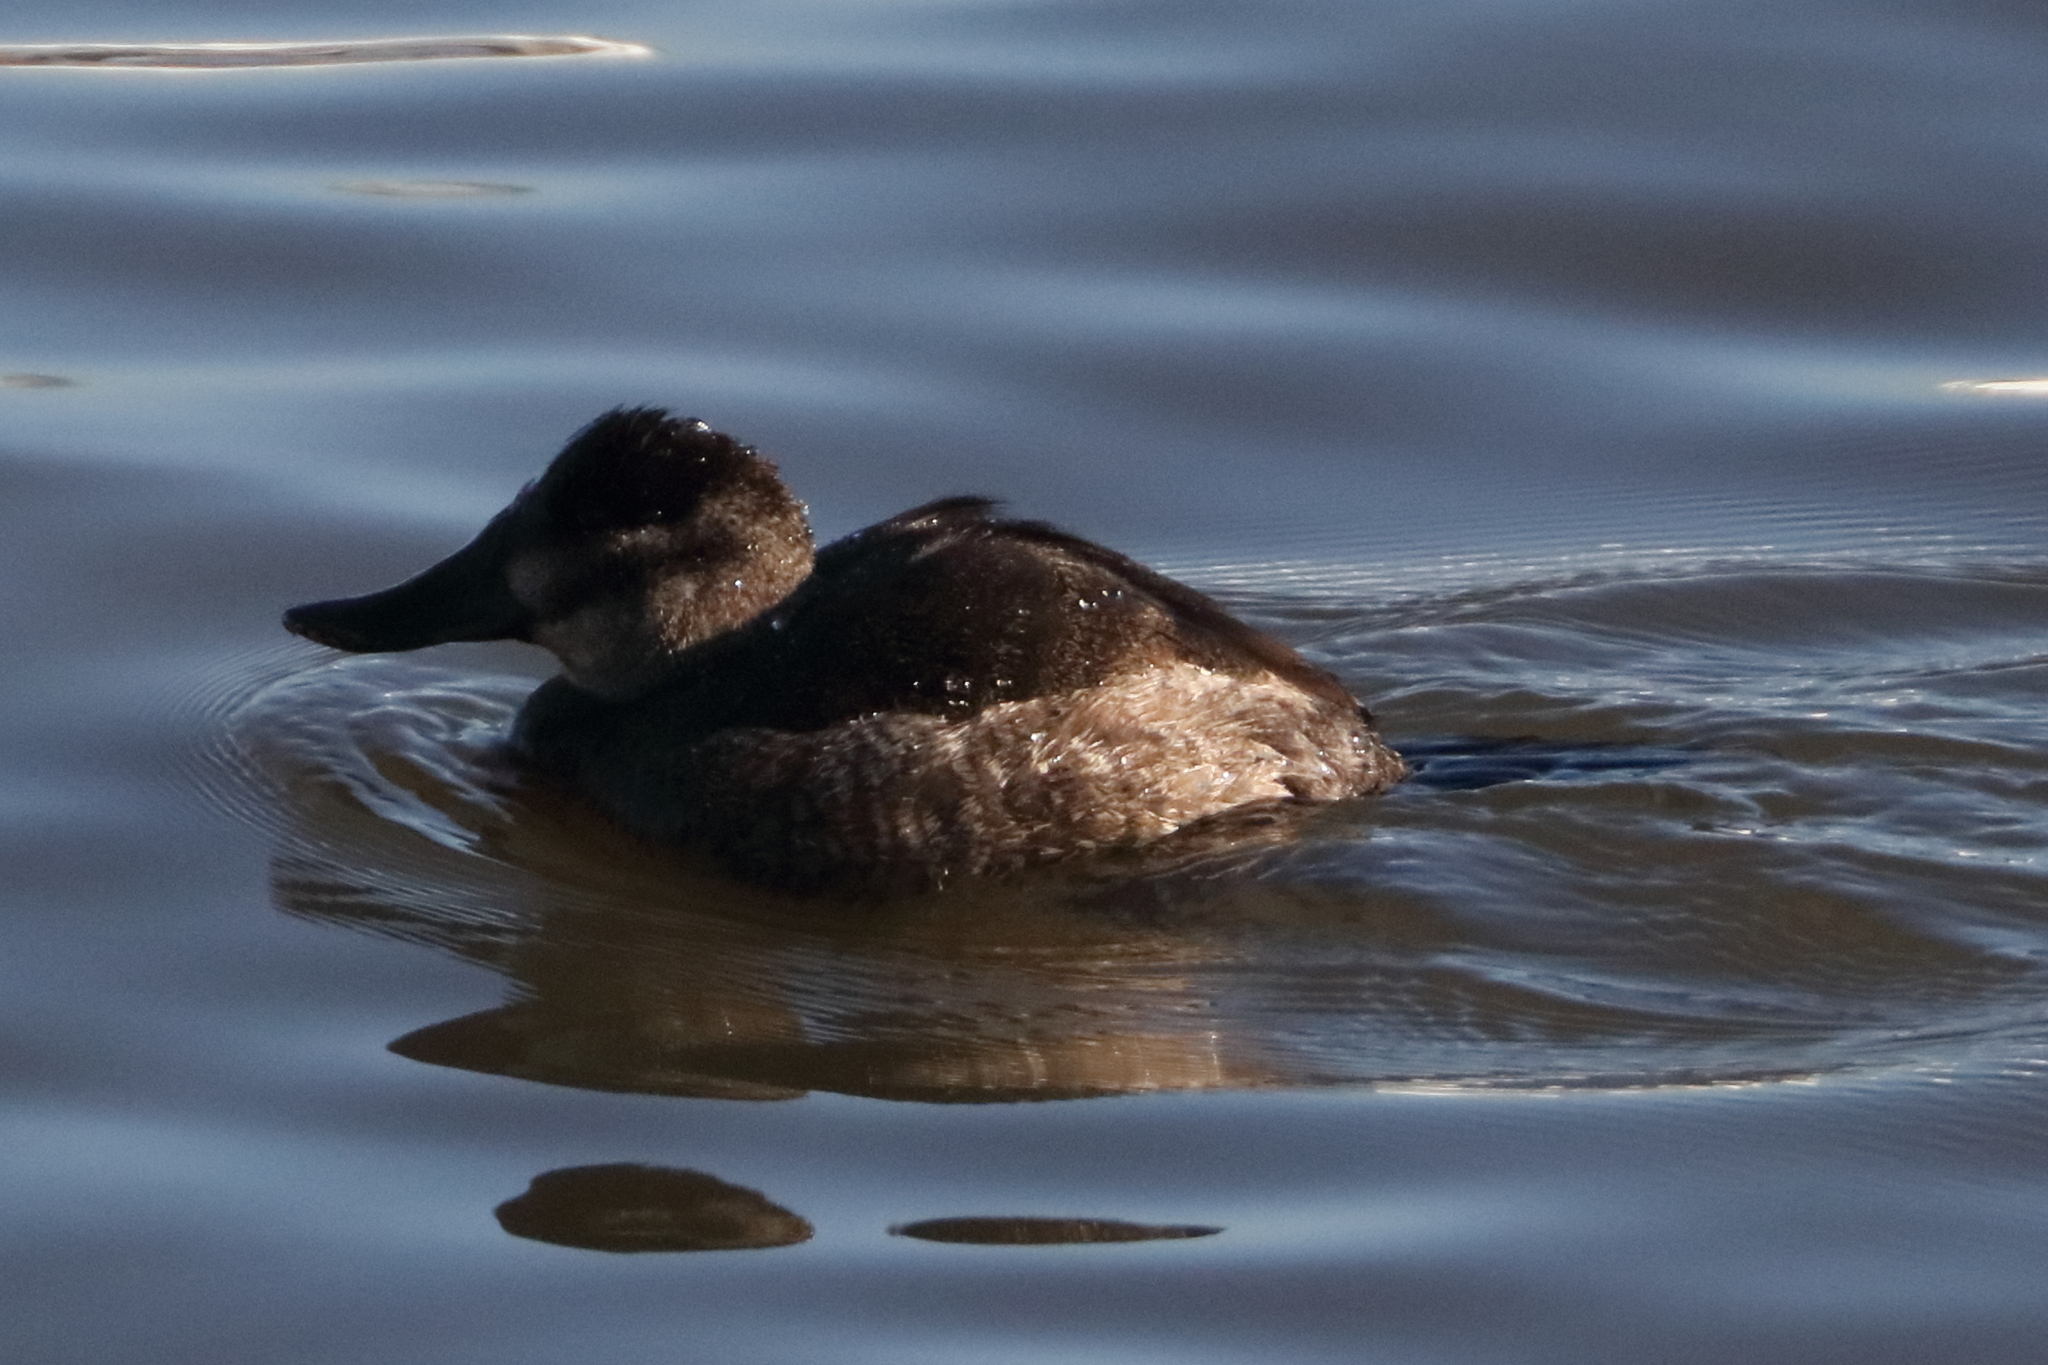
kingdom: Animalia
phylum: Chordata
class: Aves
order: Anseriformes
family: Anatidae
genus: Oxyura
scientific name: Oxyura jamaicensis
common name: Ruddy duck
